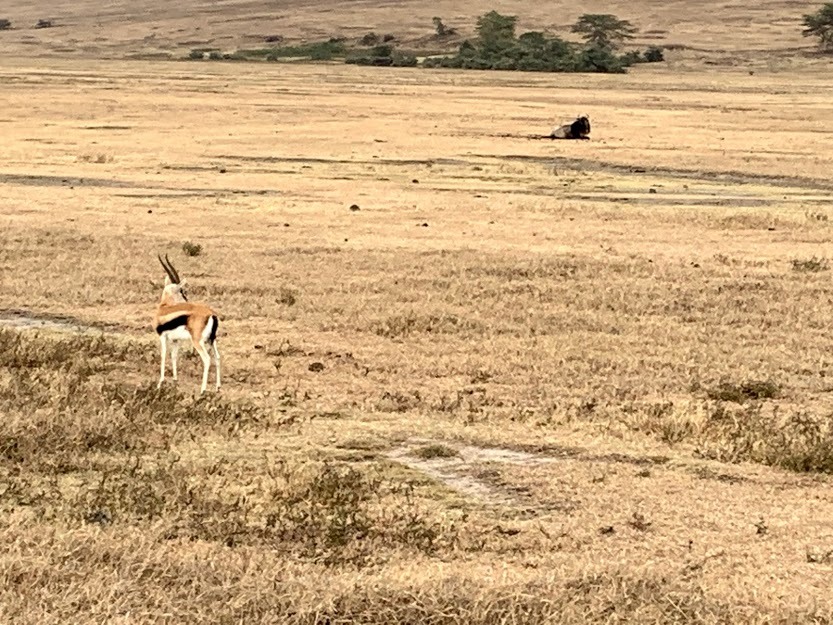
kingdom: Animalia
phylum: Chordata
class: Mammalia
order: Artiodactyla
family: Bovidae
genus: Eudorcas
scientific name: Eudorcas thomsonii
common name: Thomson's gazelle
